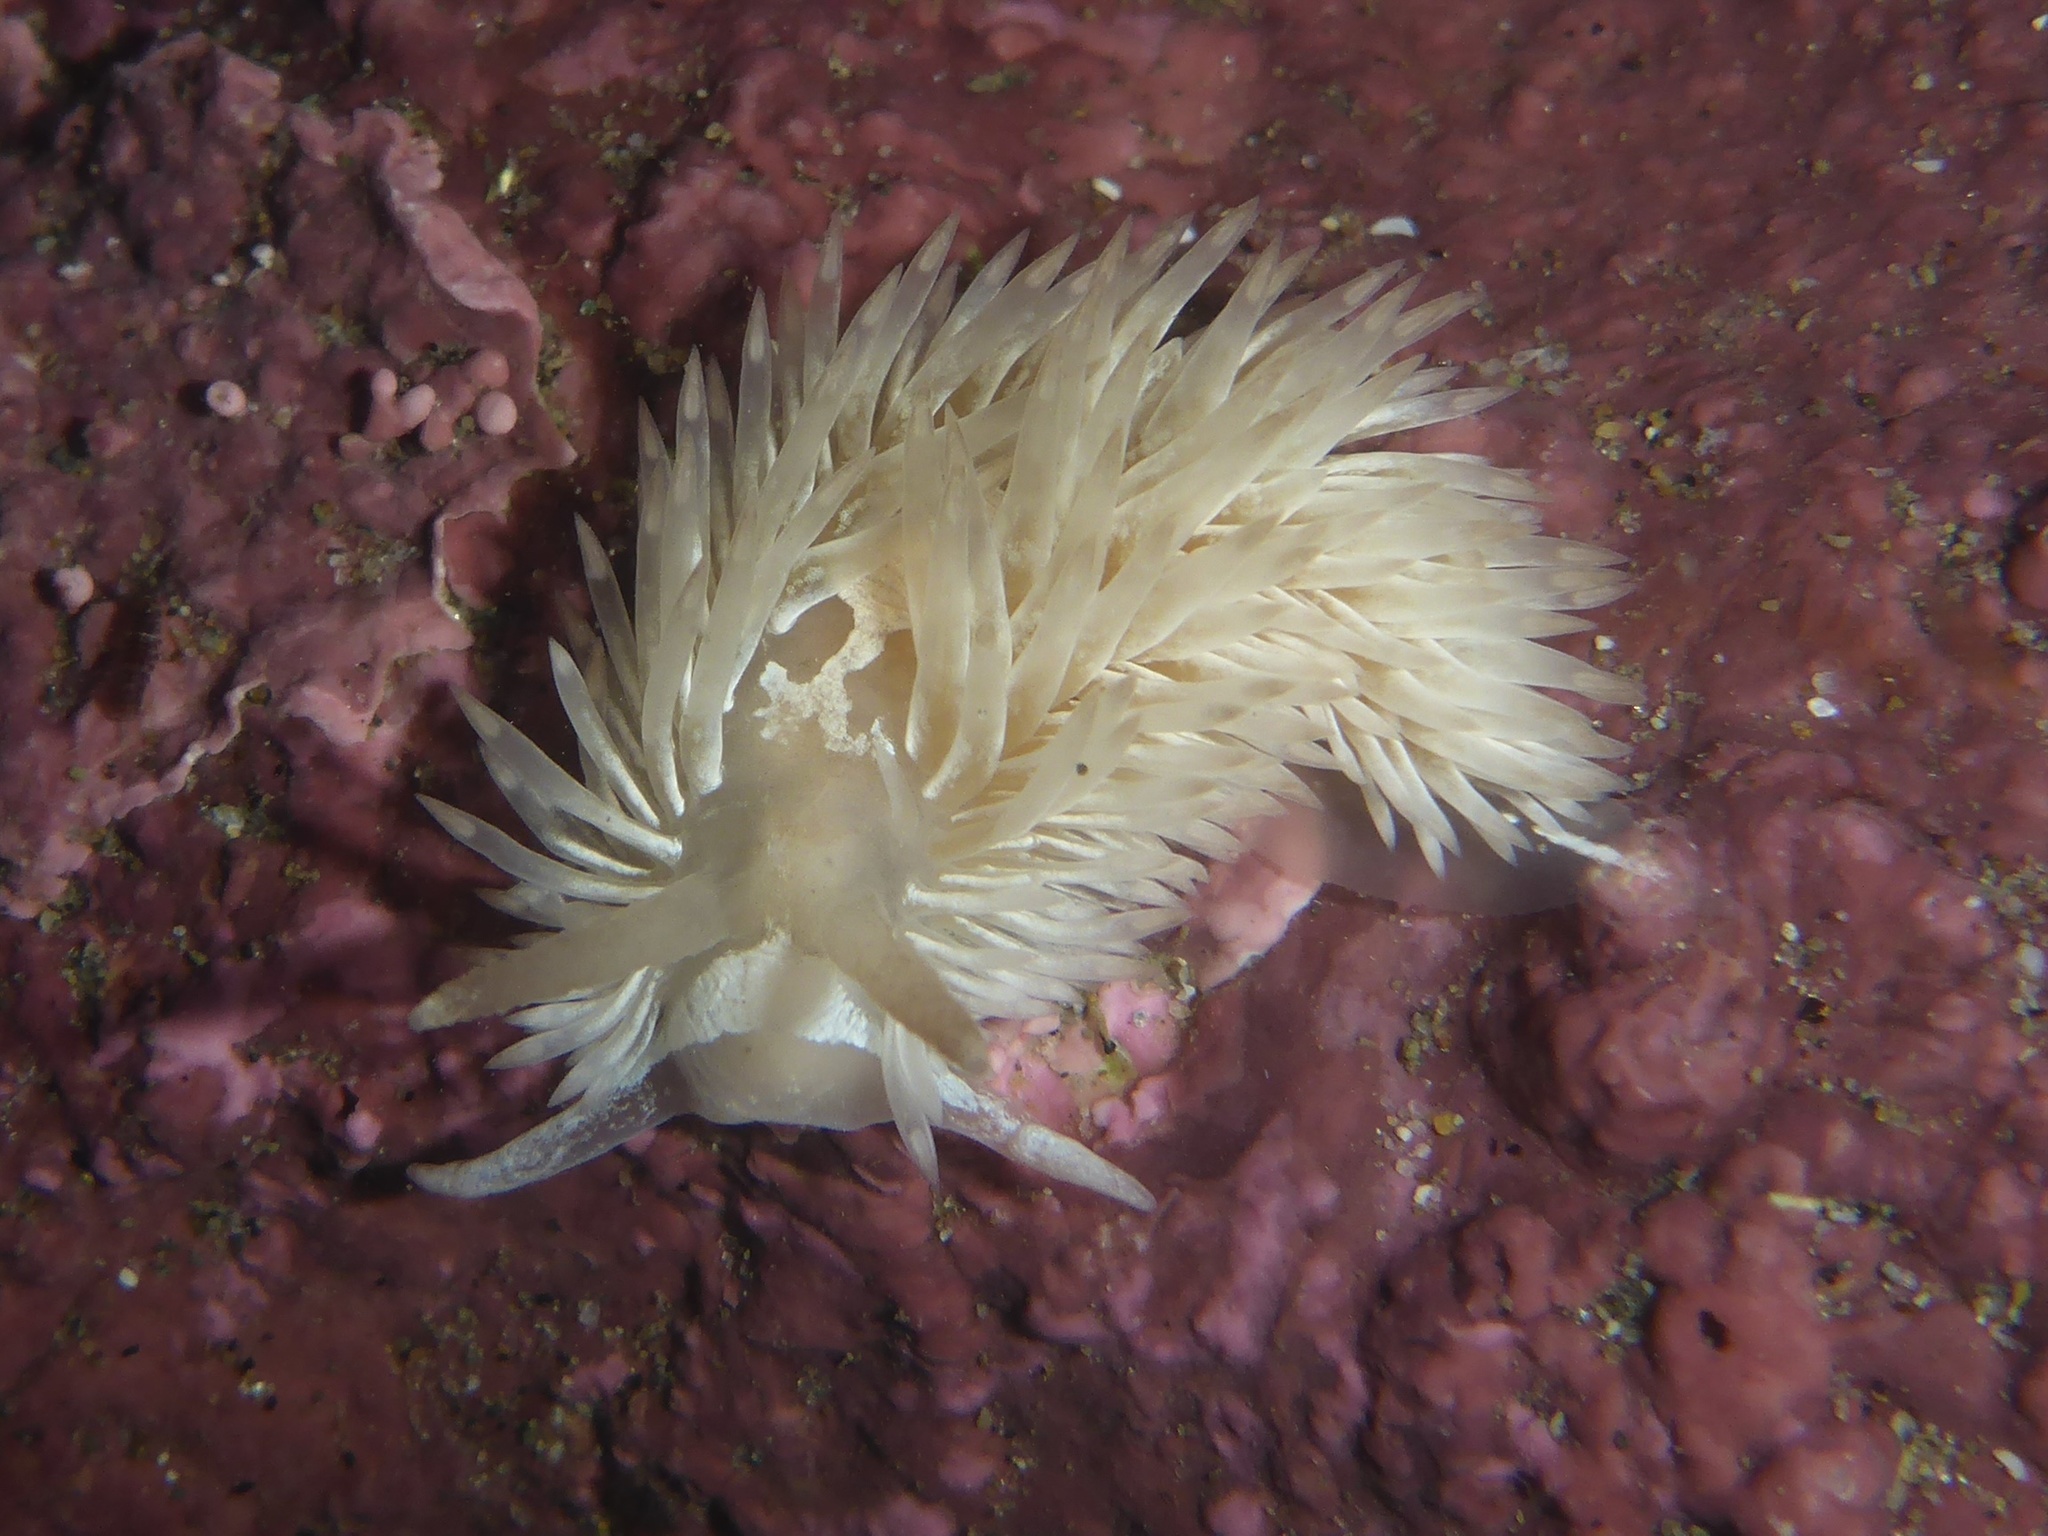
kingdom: Animalia
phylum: Mollusca
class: Gastropoda
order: Nudibranchia
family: Aeolidiidae
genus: Aeolidia
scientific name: Aeolidia loui
